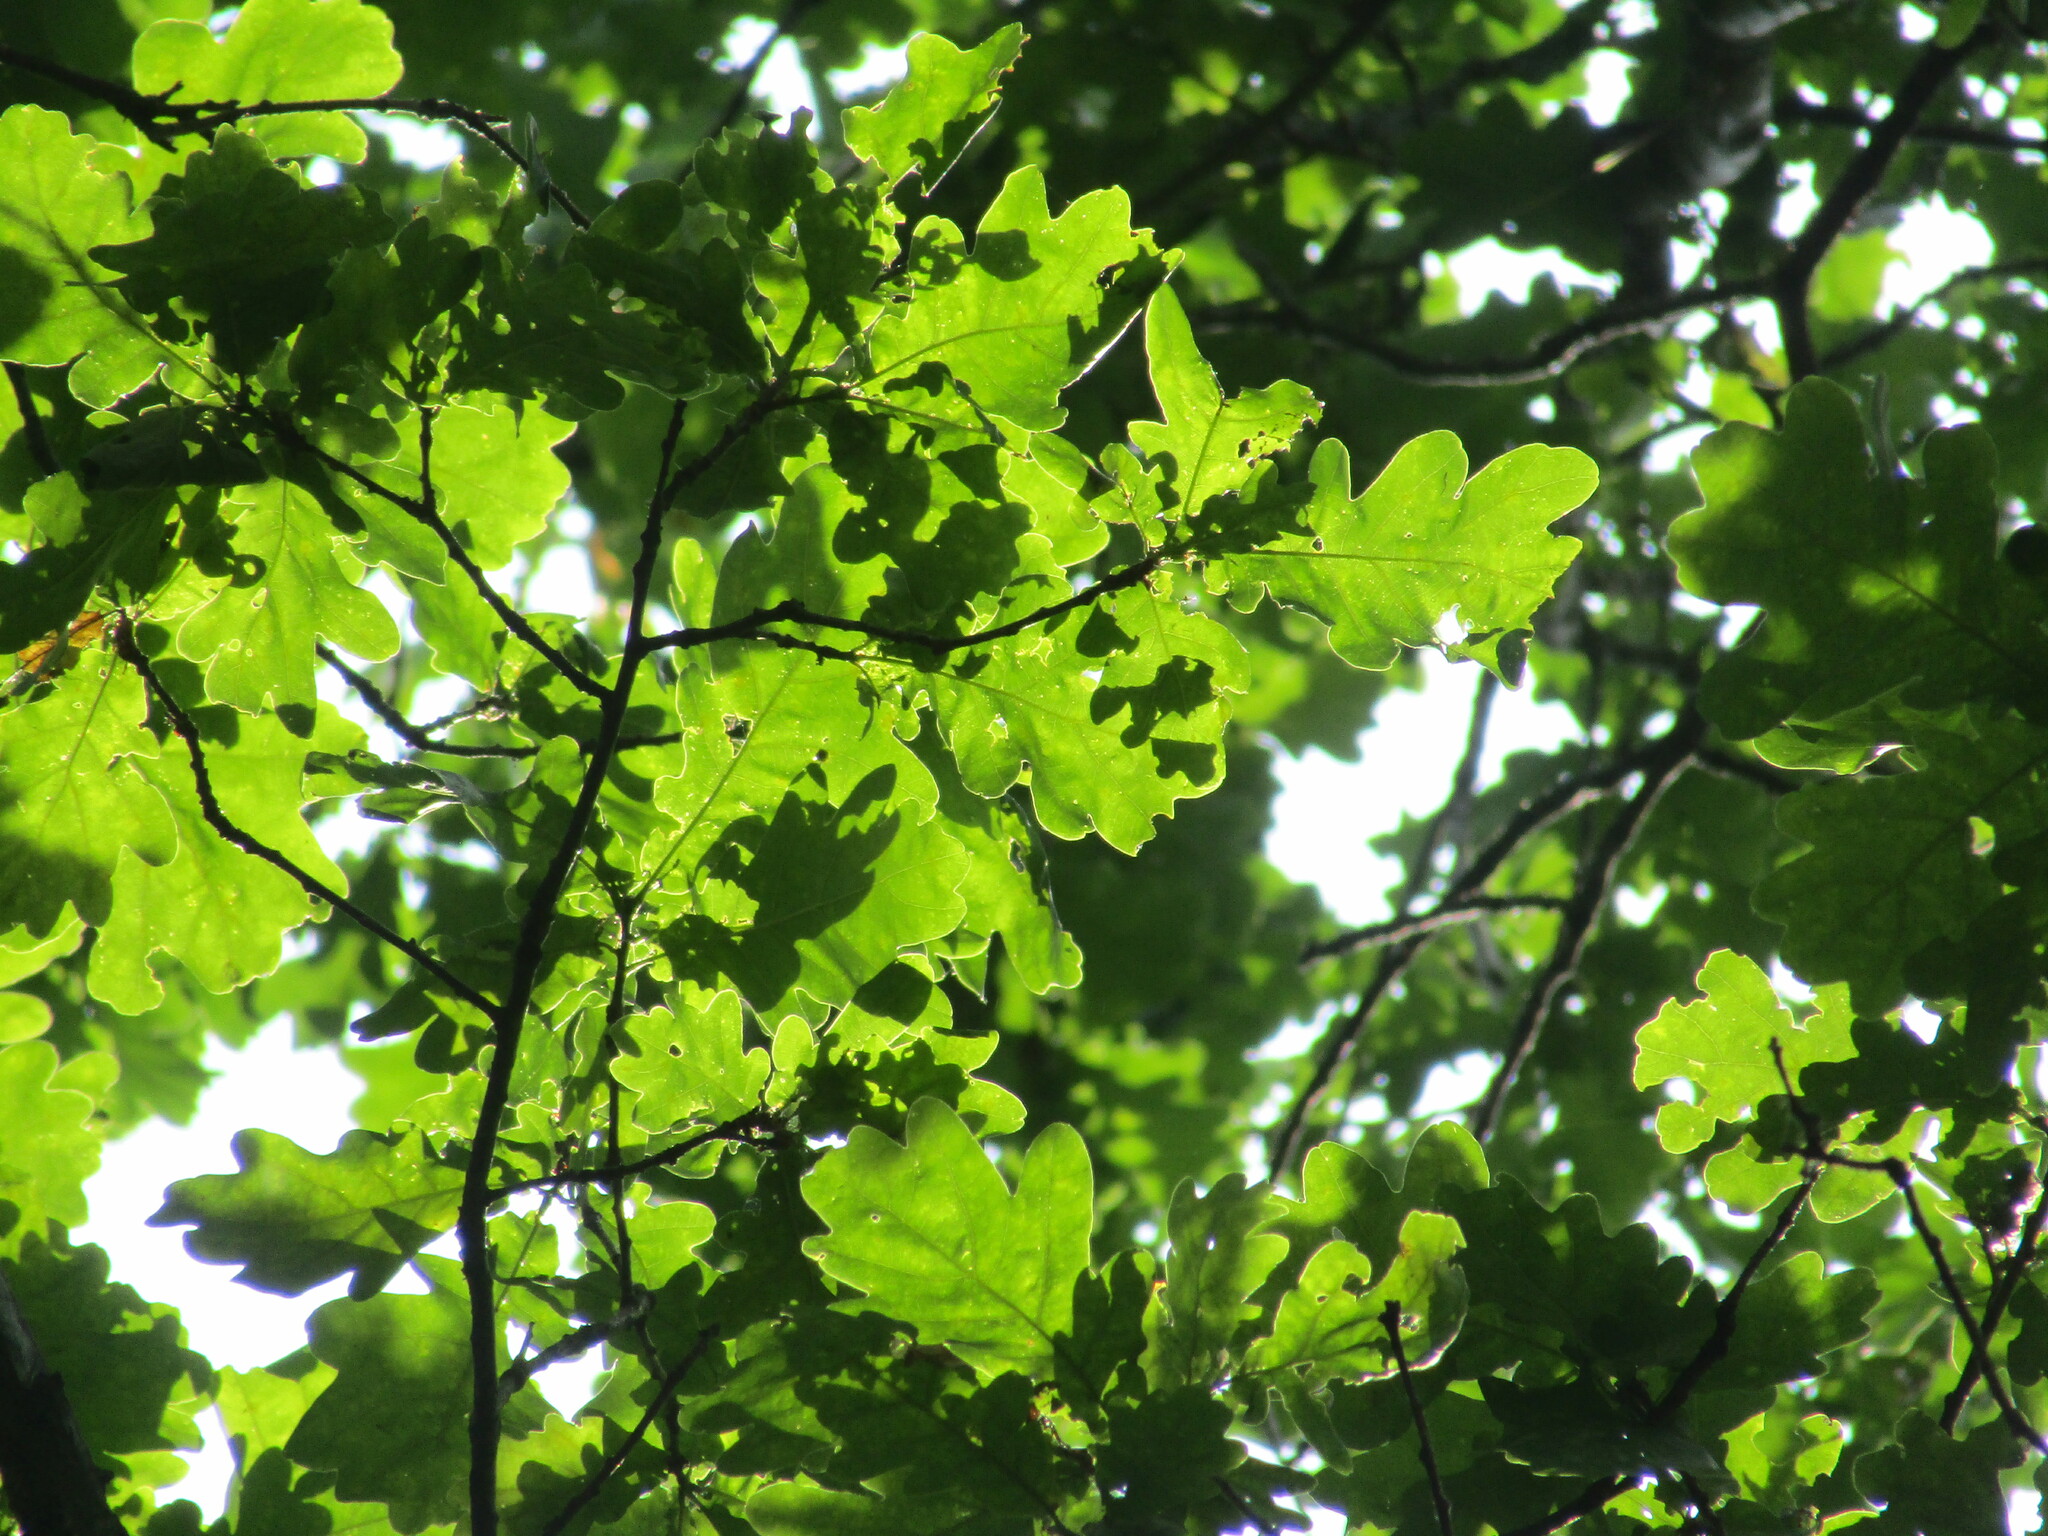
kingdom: Plantae
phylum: Tracheophyta
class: Magnoliopsida
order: Fagales
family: Fagaceae
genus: Quercus
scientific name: Quercus robur
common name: Pedunculate oak
